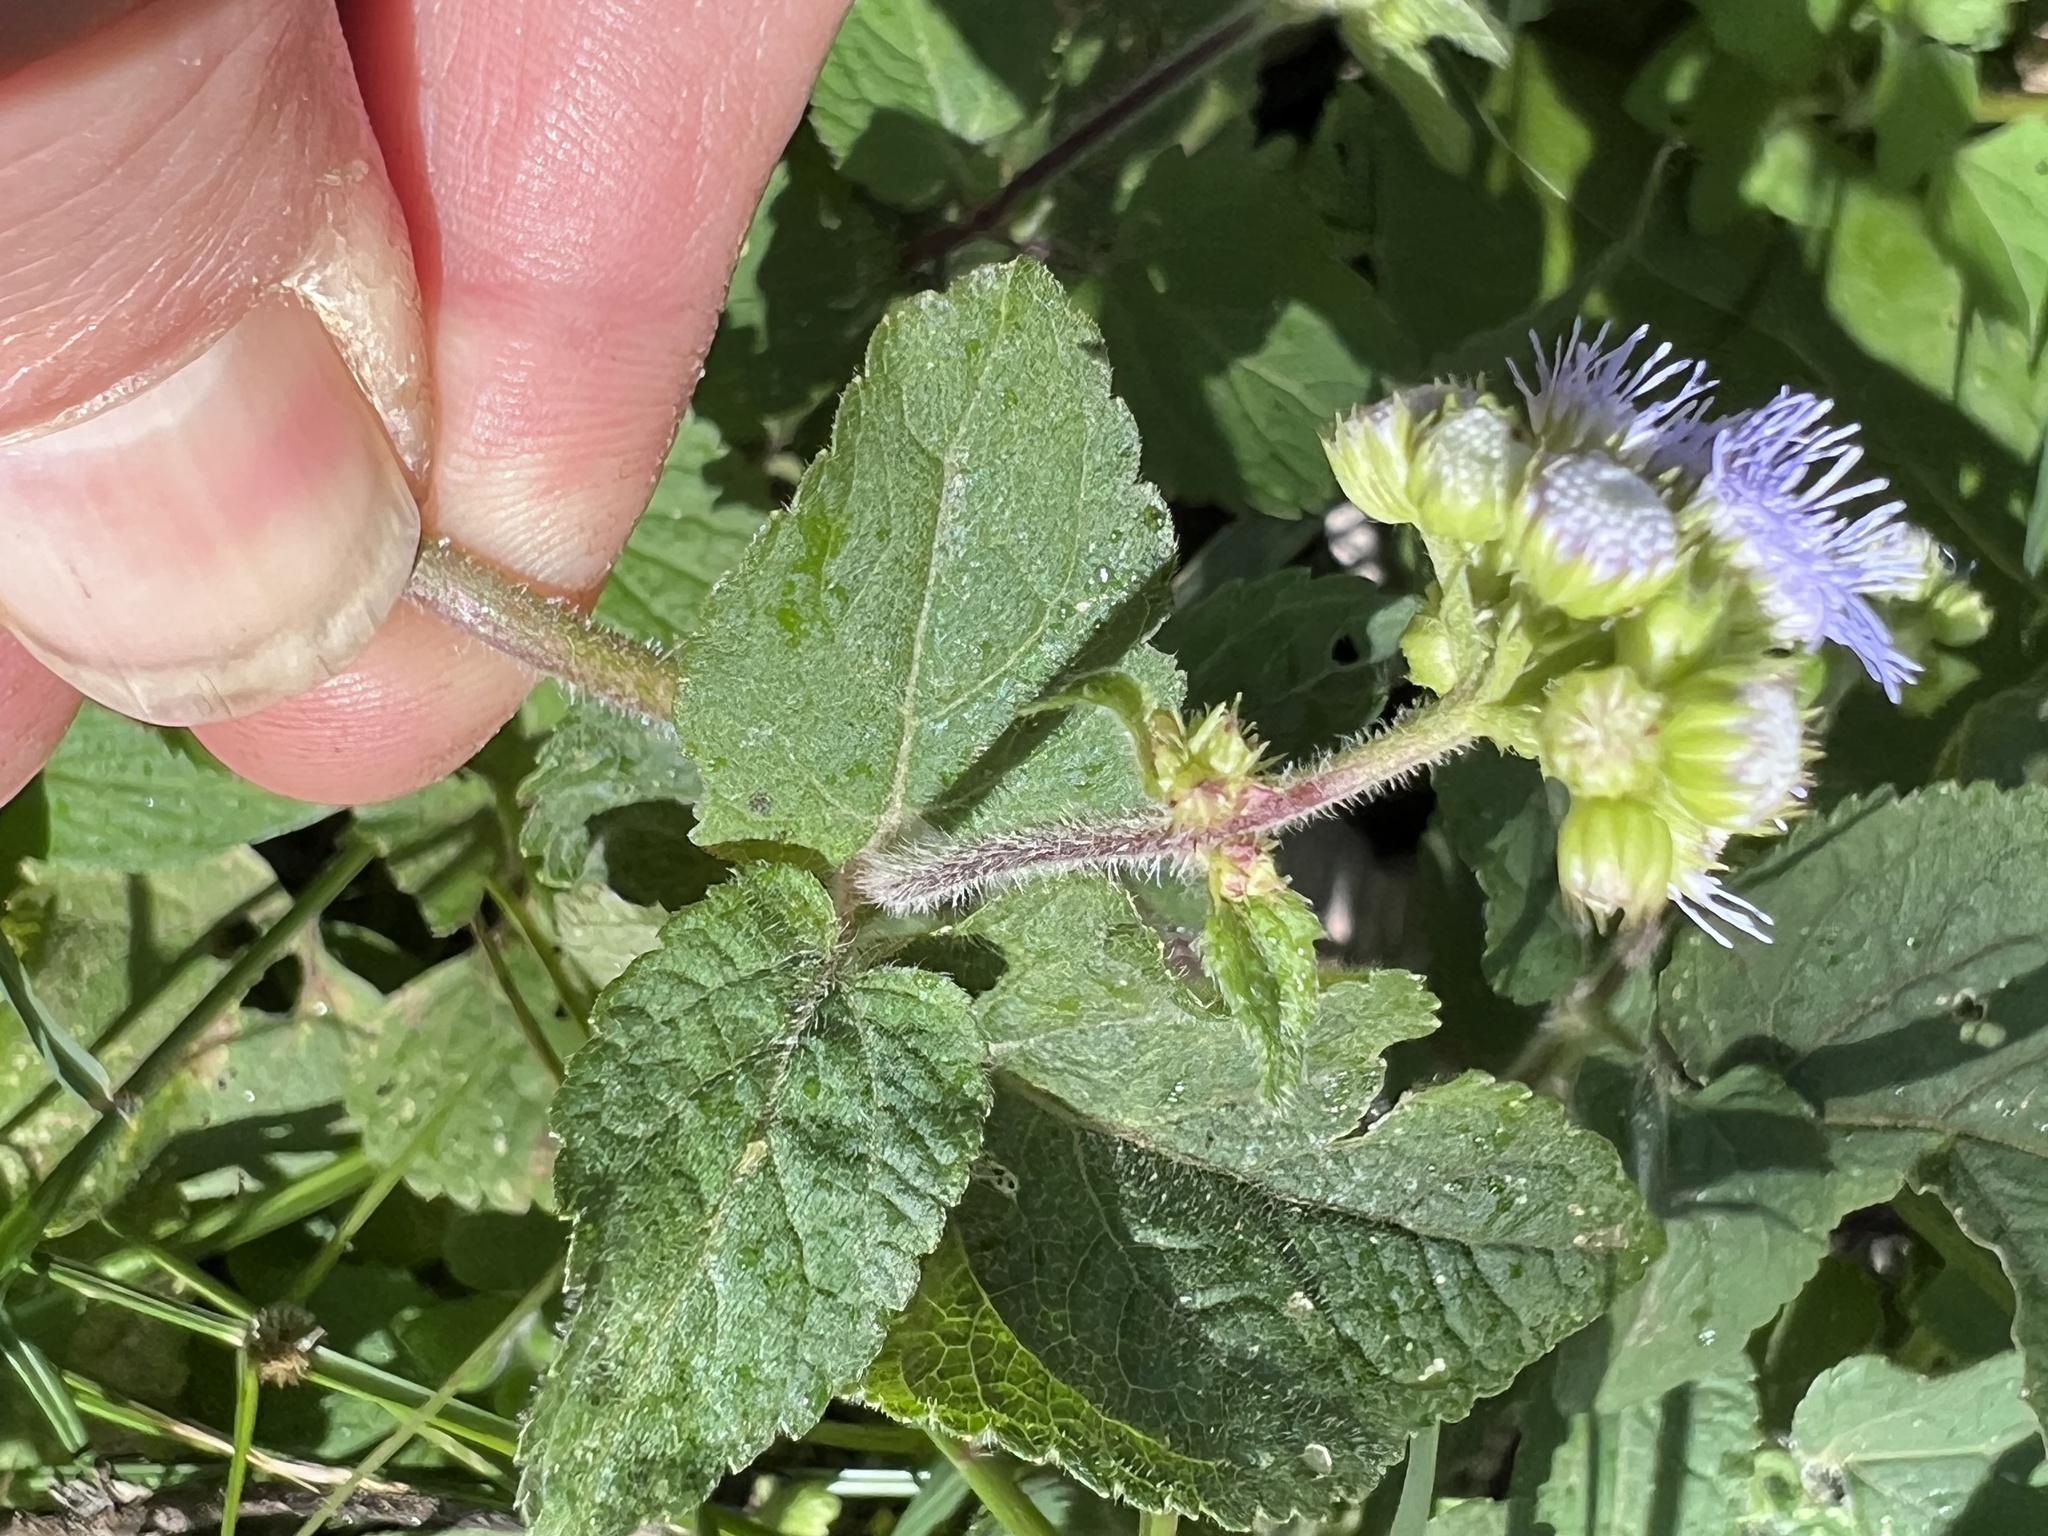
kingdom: Plantae
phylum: Tracheophyta
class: Magnoliopsida
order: Asterales
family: Asteraceae
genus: Ageratum
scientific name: Ageratum houstonianum
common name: Bluemink
